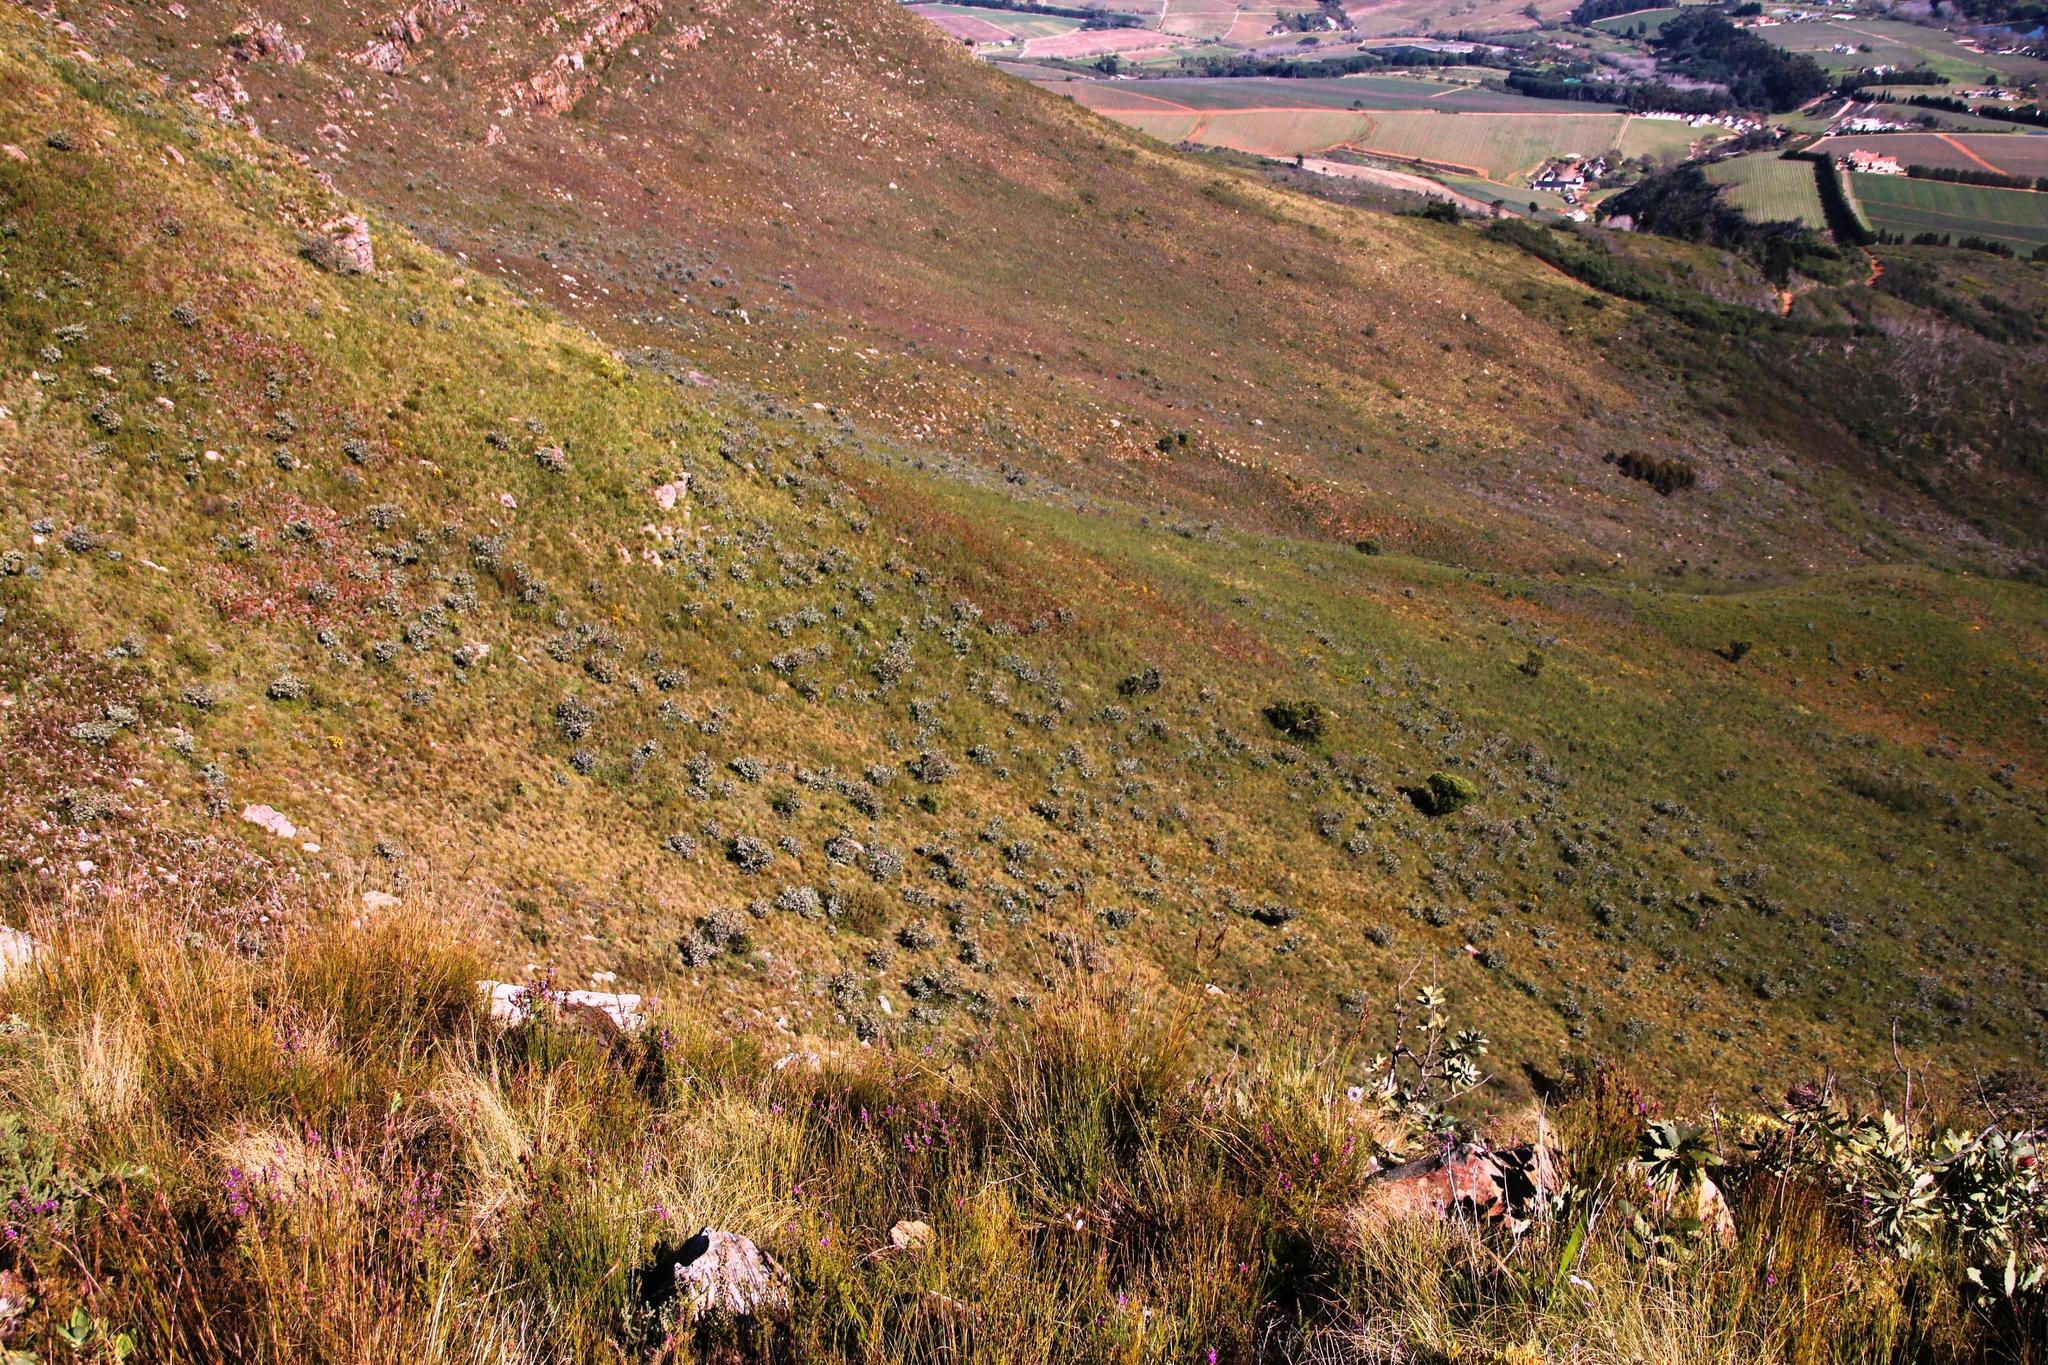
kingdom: Plantae
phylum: Tracheophyta
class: Magnoliopsida
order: Proteales
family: Proteaceae
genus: Protea
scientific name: Protea nitida
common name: Tree protea
